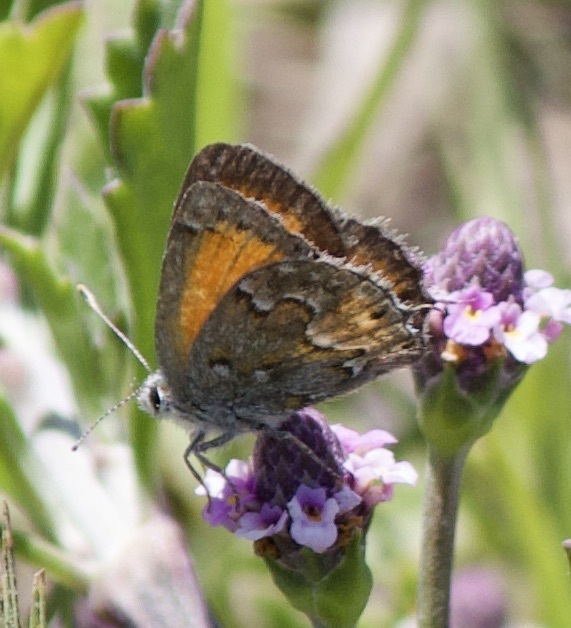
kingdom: Animalia
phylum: Arthropoda
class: Insecta
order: Lepidoptera
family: Lycaenidae
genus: Strymon
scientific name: Strymon
